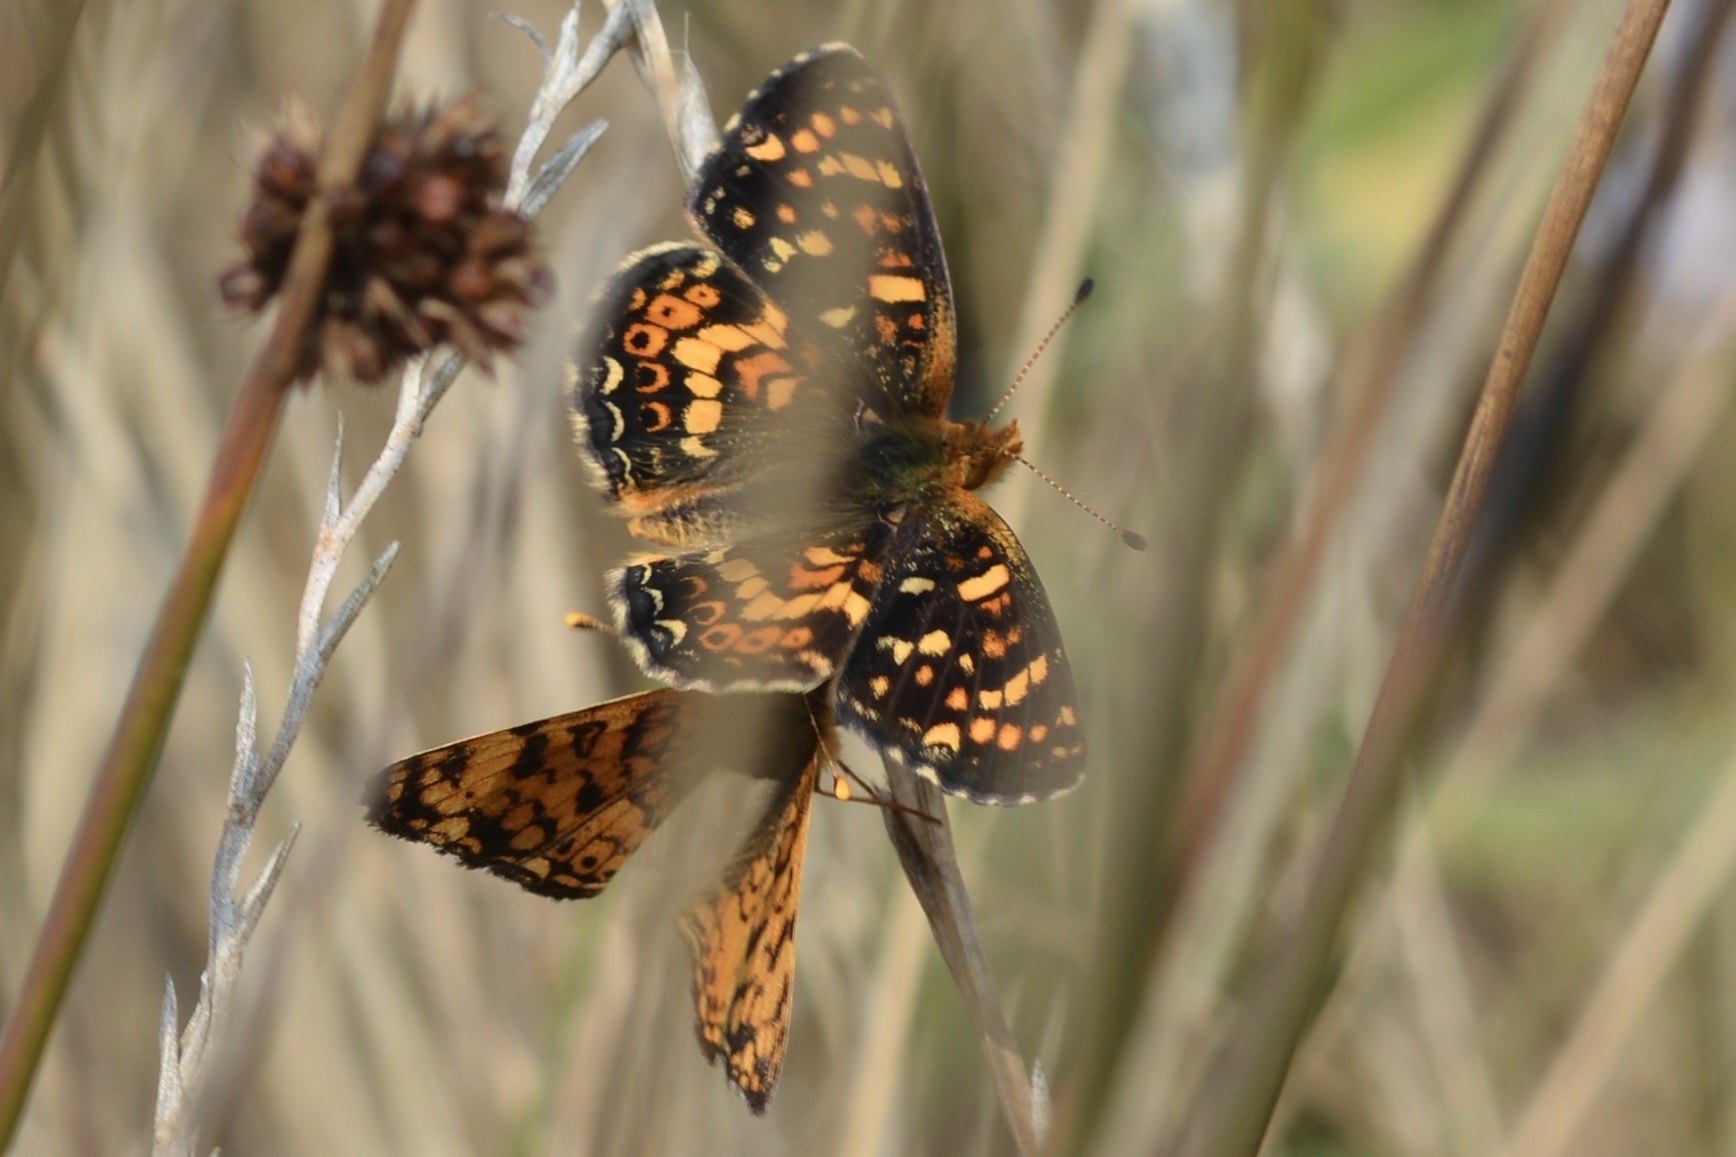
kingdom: Animalia
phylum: Arthropoda
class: Insecta
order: Lepidoptera
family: Nymphalidae
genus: Phyciodes
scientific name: Phyciodes tharos
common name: Pearl crescent
